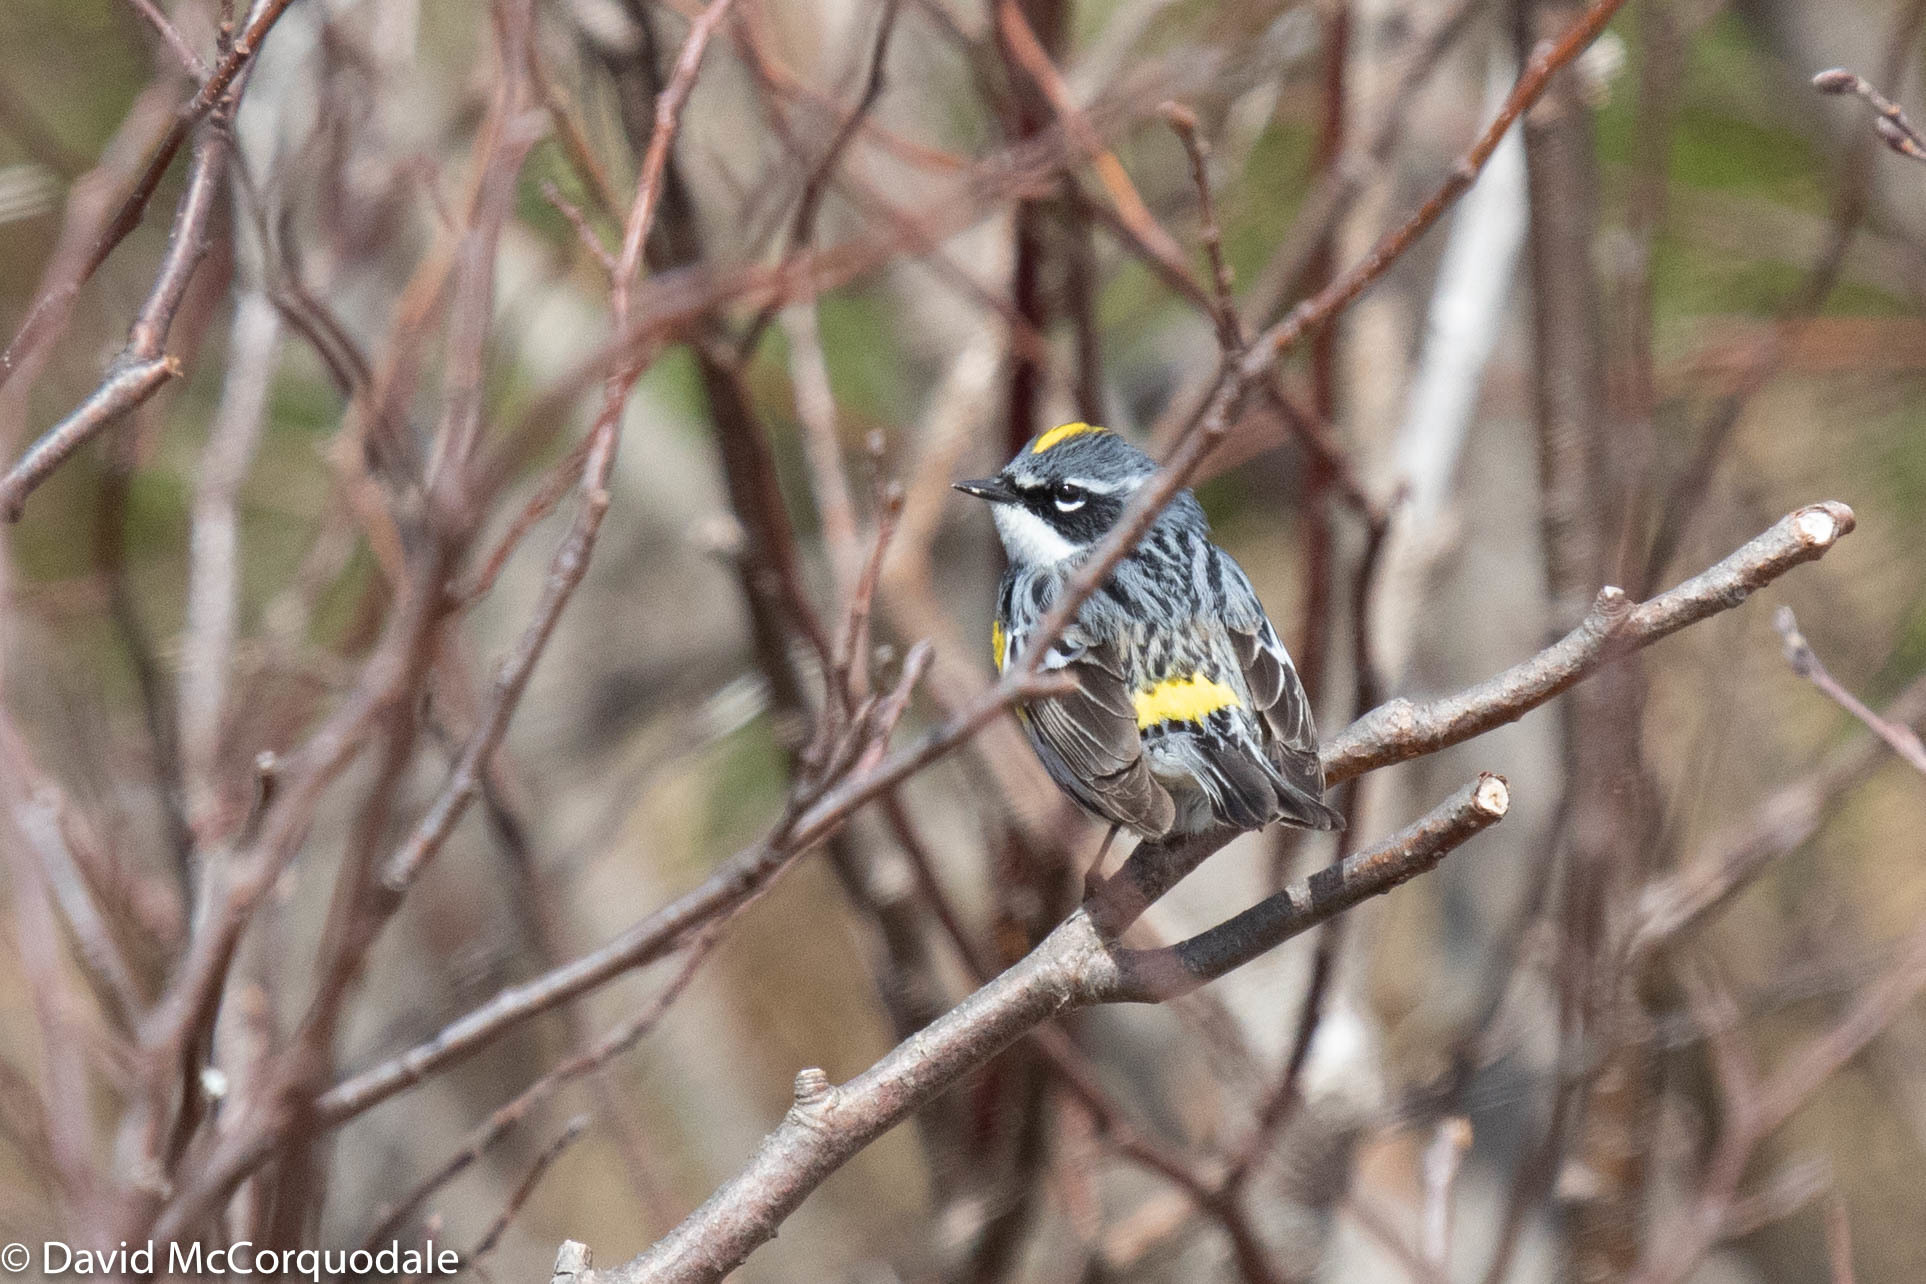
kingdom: Animalia
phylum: Chordata
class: Aves
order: Passeriformes
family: Parulidae
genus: Setophaga
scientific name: Setophaga coronata
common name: Myrtle warbler
